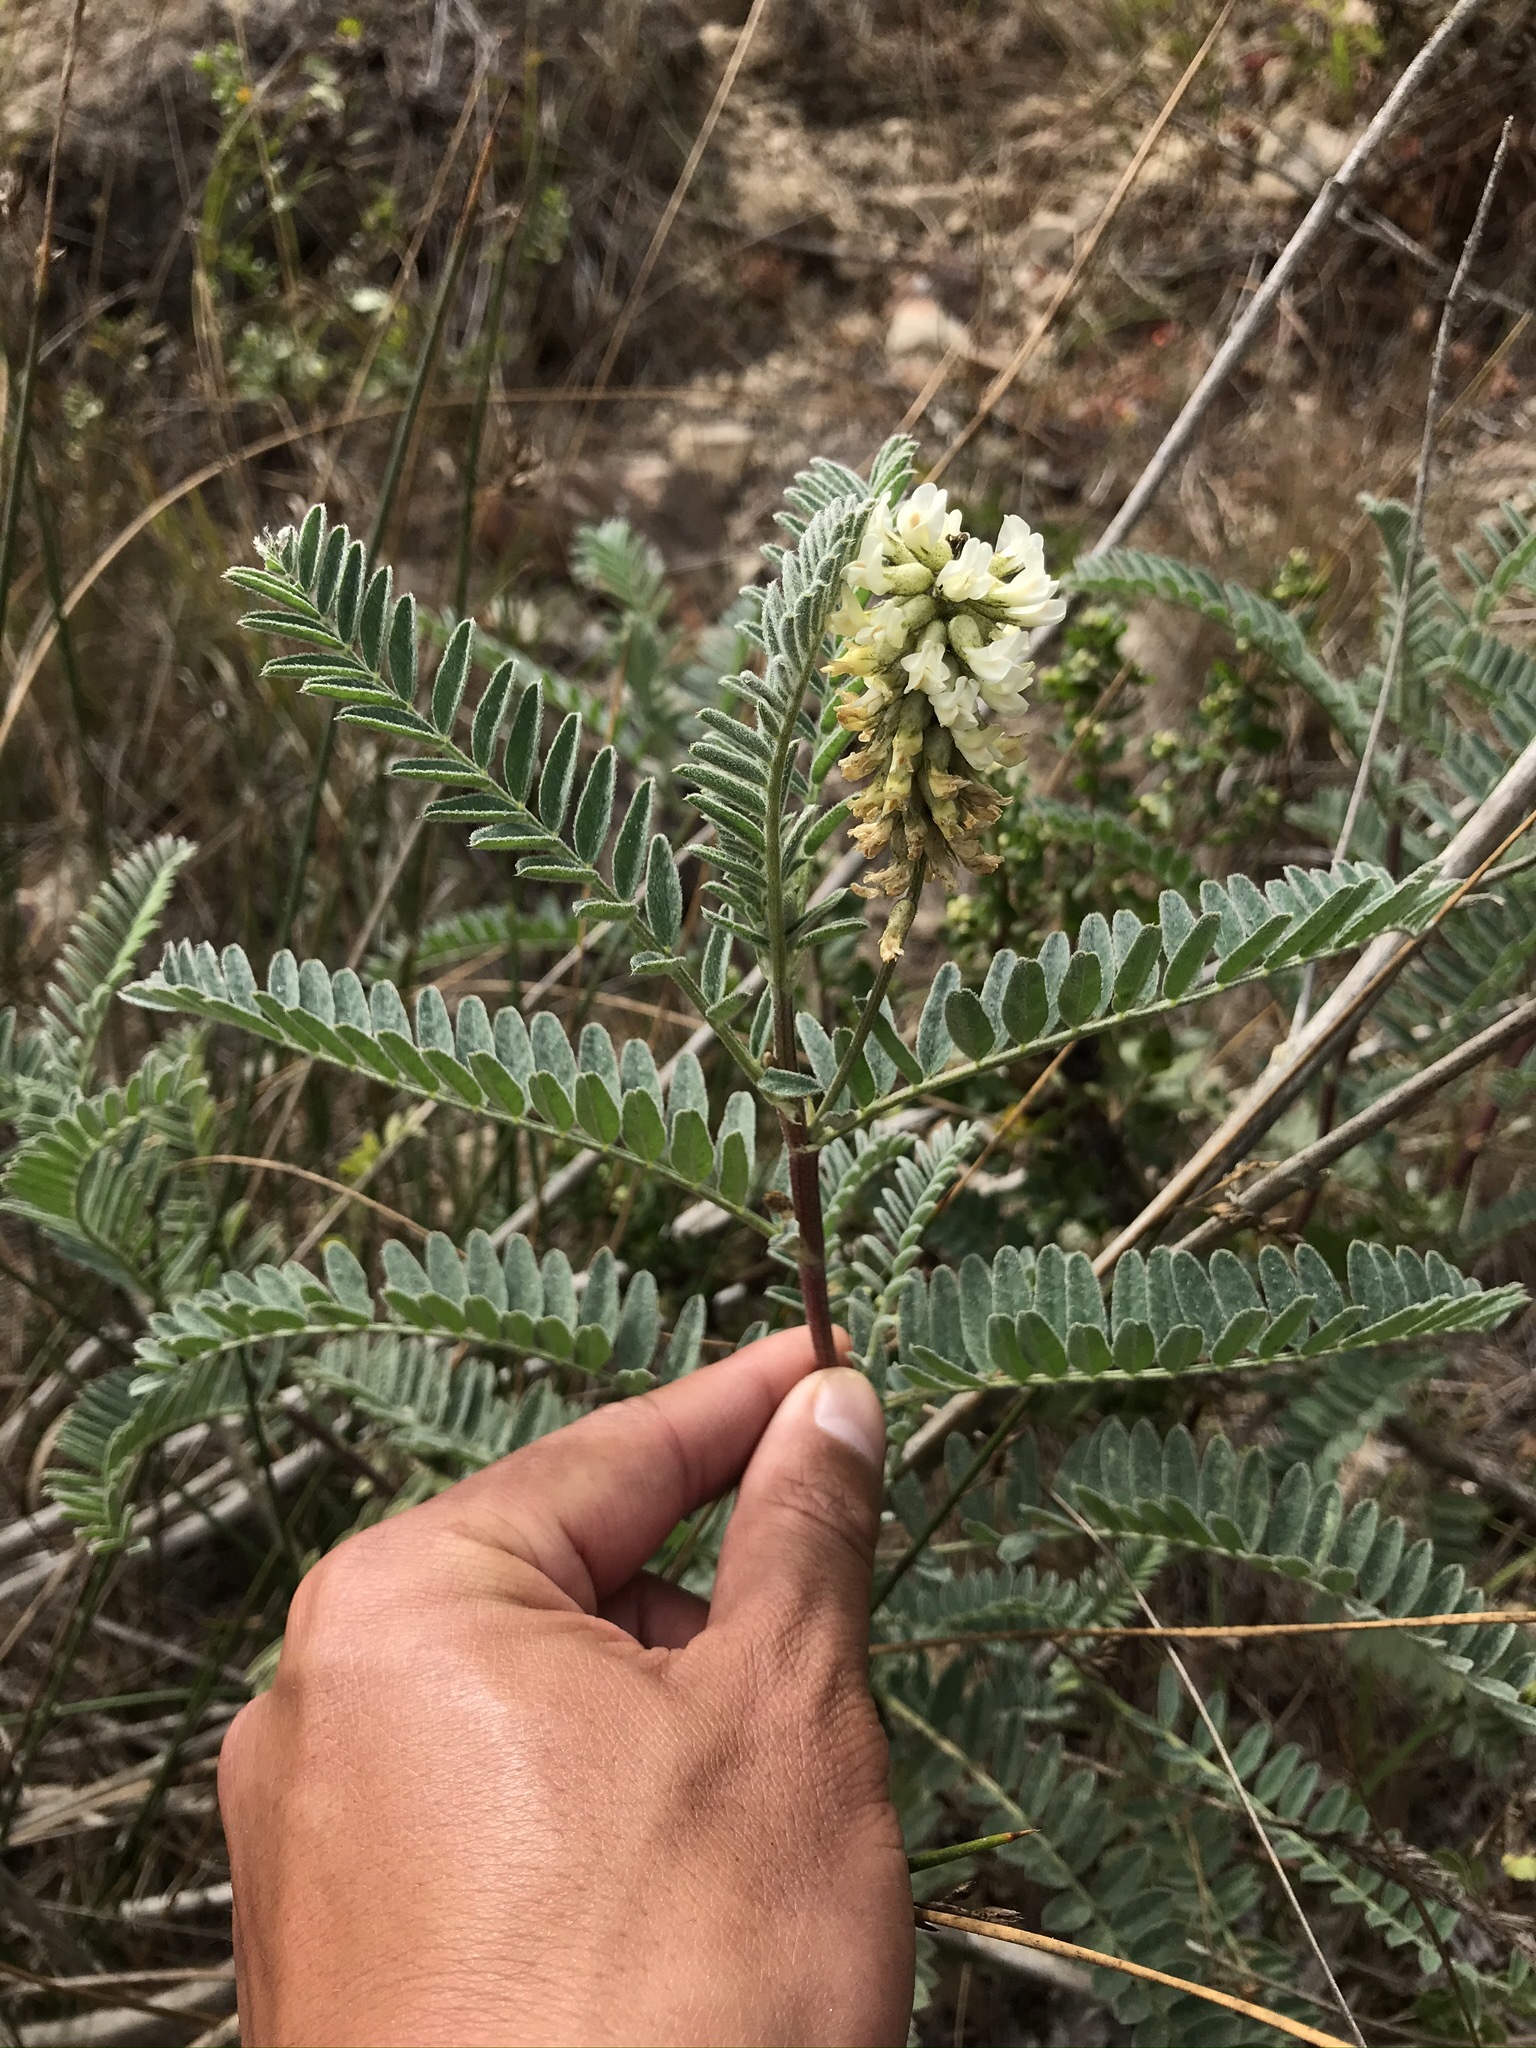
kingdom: Plantae
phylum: Tracheophyta
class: Magnoliopsida
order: Fabales
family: Fabaceae
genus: Astragalus
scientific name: Astragalus pycnostachyus
